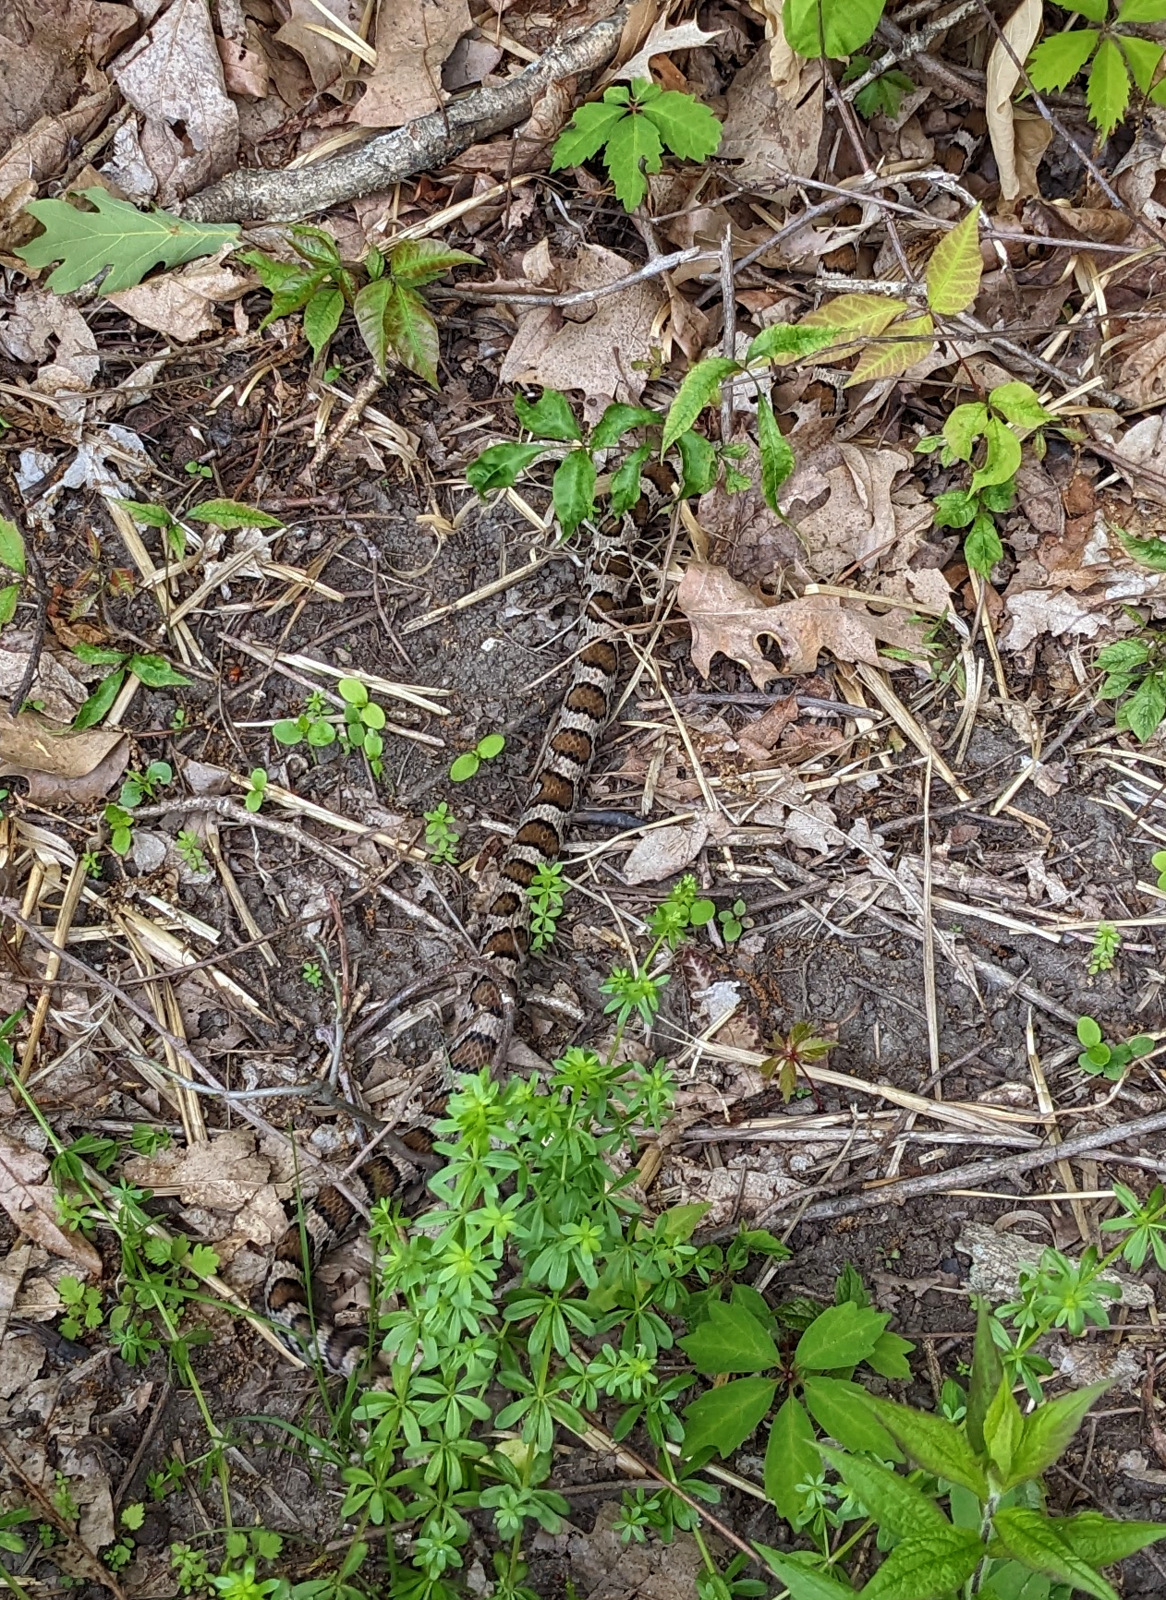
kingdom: Animalia
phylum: Chordata
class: Squamata
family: Colubridae
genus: Lampropeltis
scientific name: Lampropeltis triangulum
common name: Eastern milksnake
